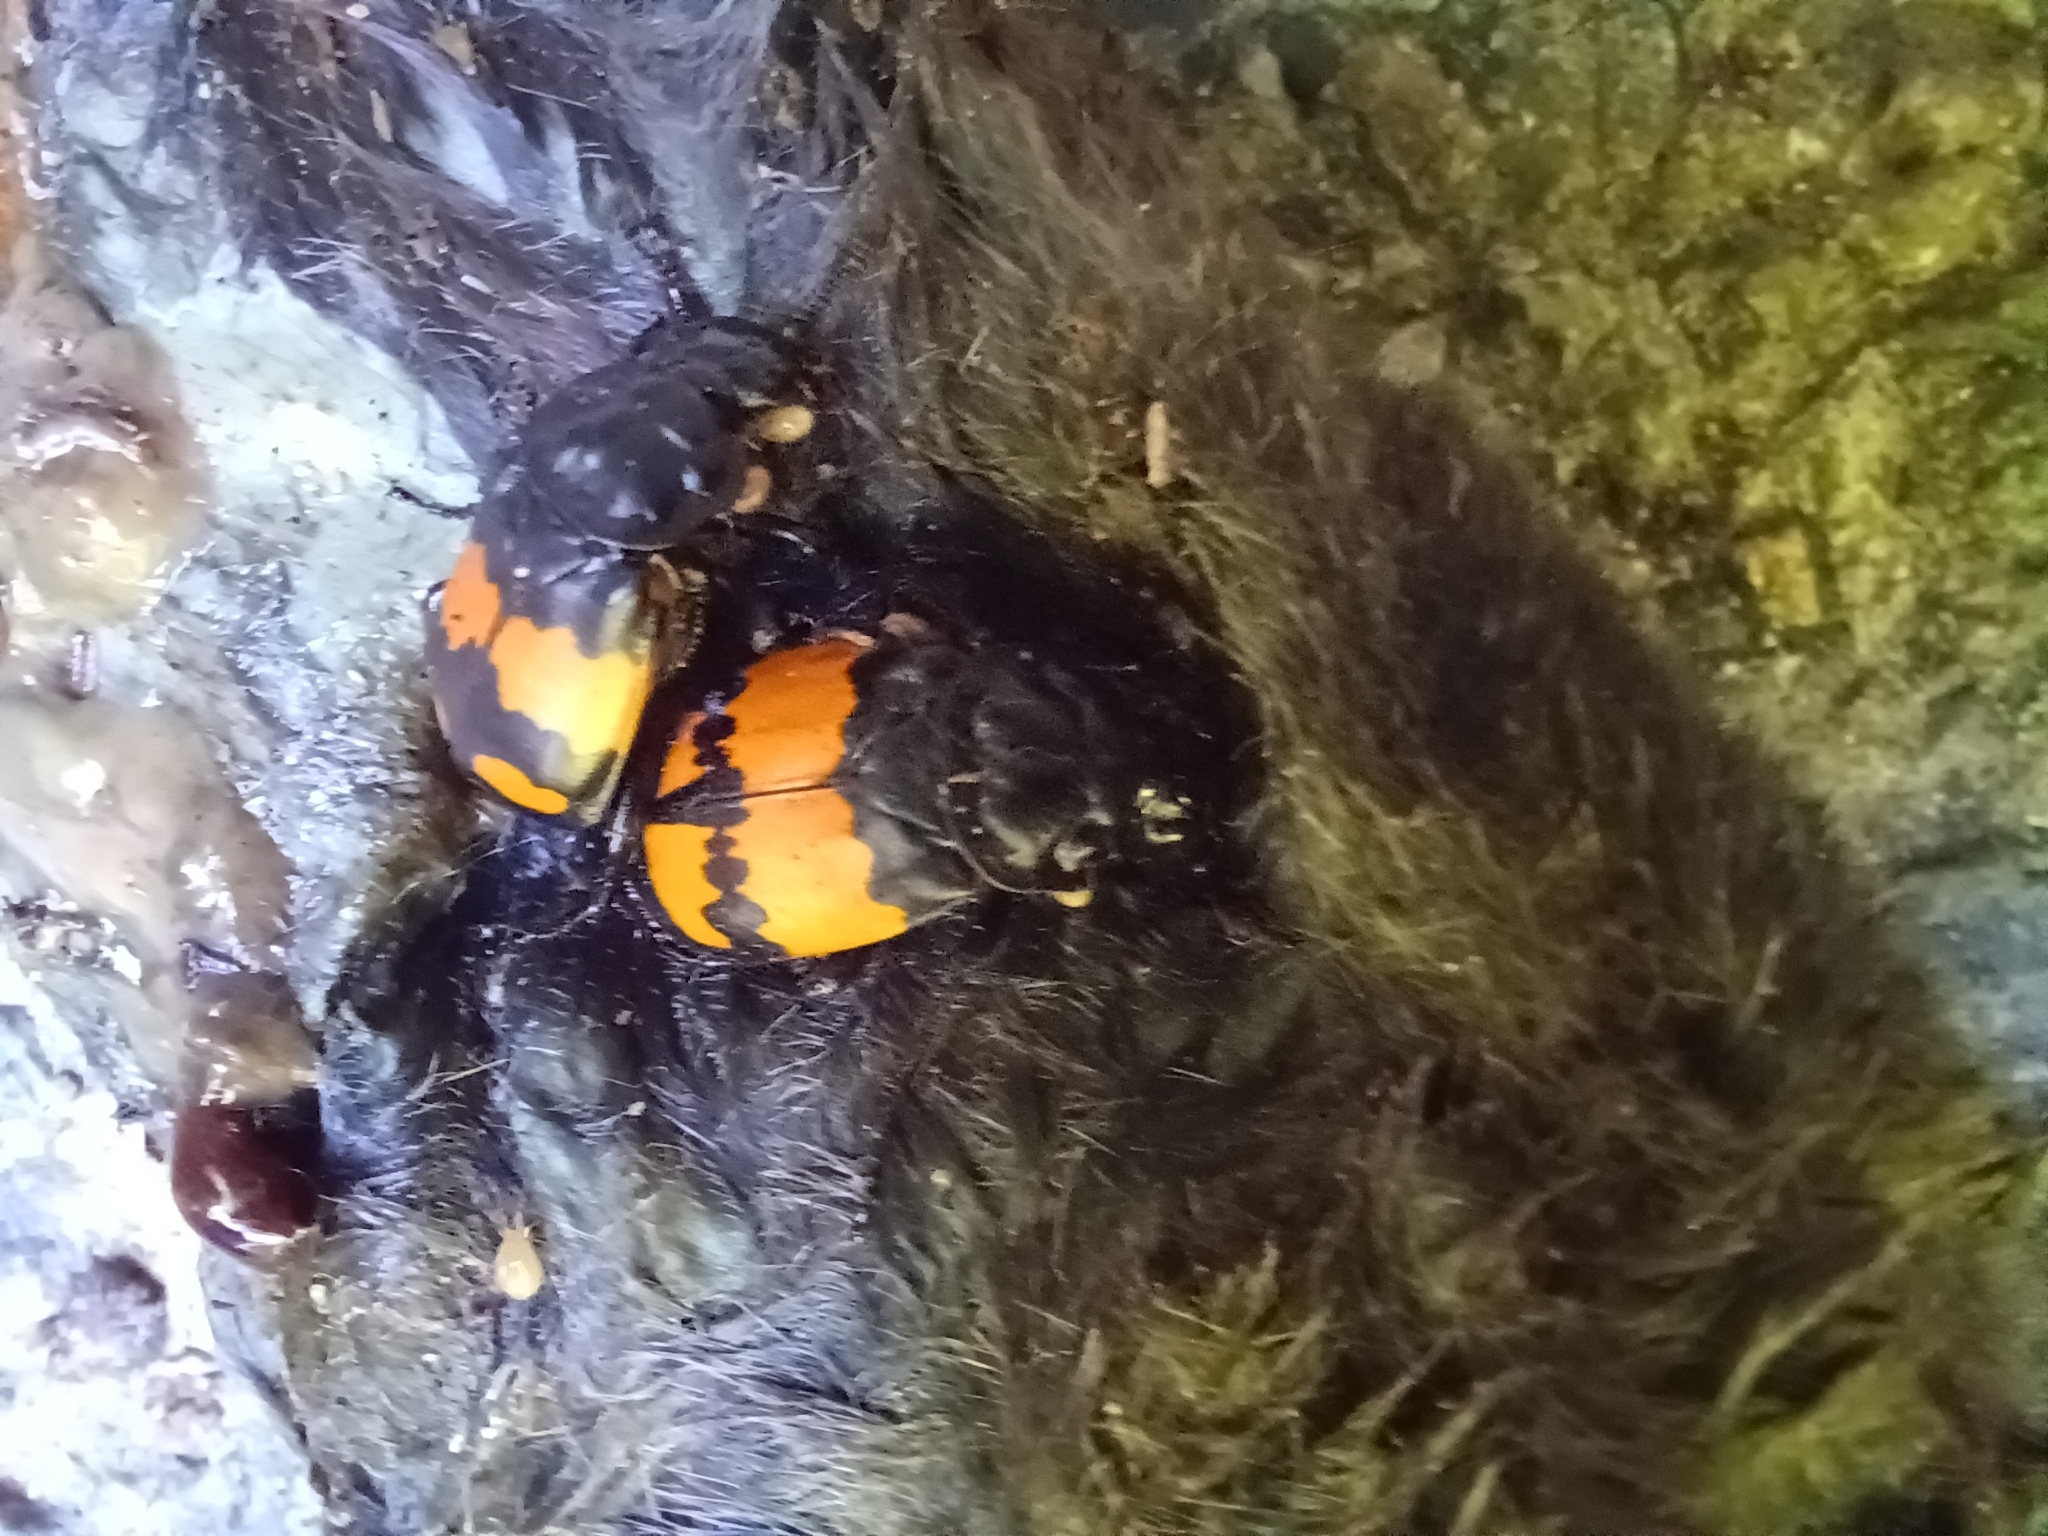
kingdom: Animalia
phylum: Arthropoda
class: Insecta
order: Coleoptera
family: Staphylinidae
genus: Nicrophorus
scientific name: Nicrophorus vespilloides
